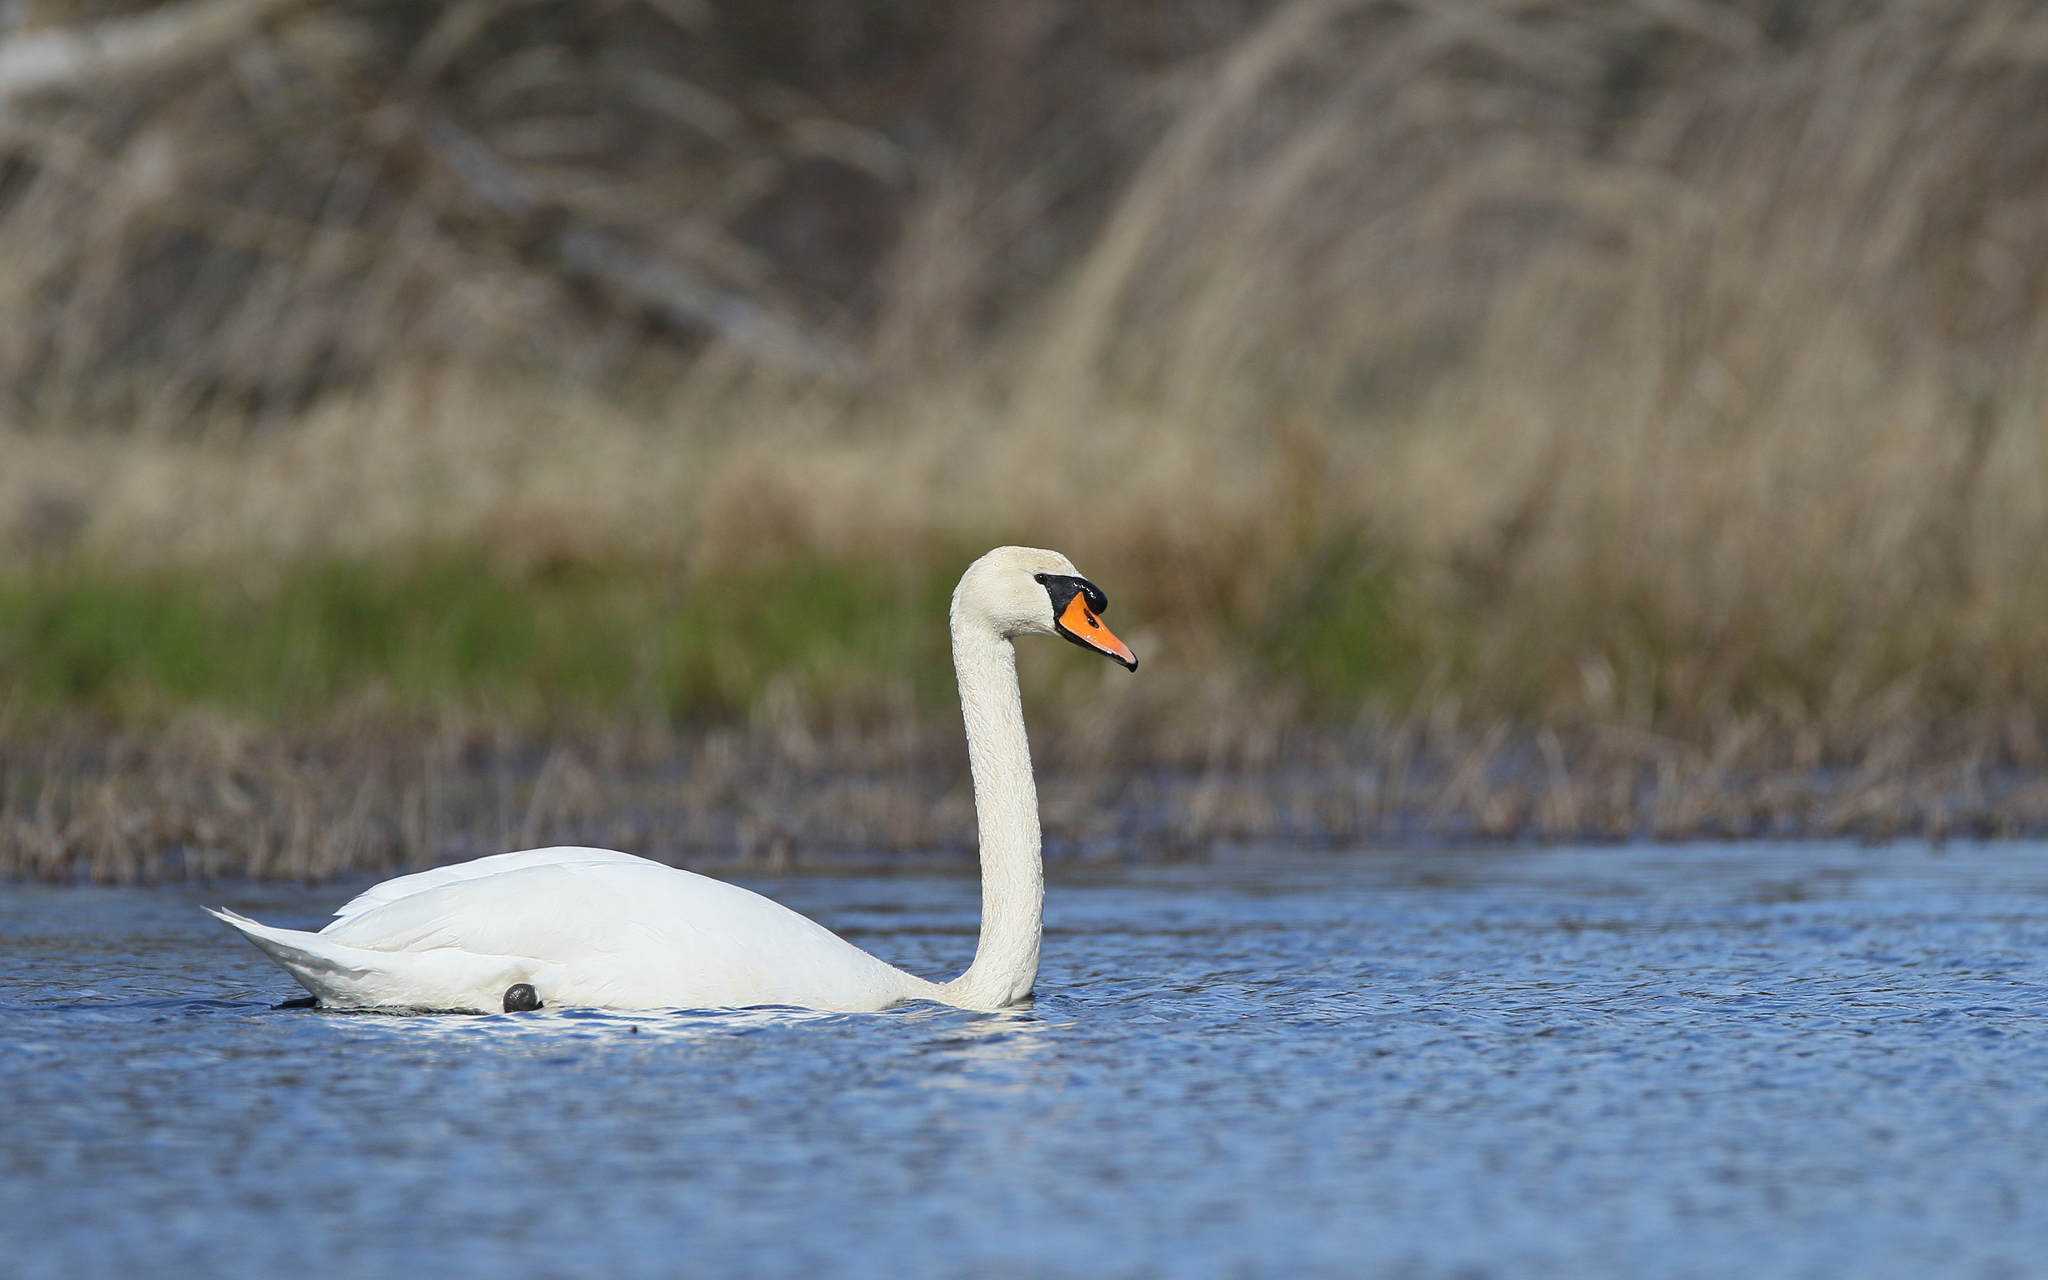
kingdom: Animalia
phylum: Chordata
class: Aves
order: Anseriformes
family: Anatidae
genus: Cygnus
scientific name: Cygnus olor
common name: Mute swan
